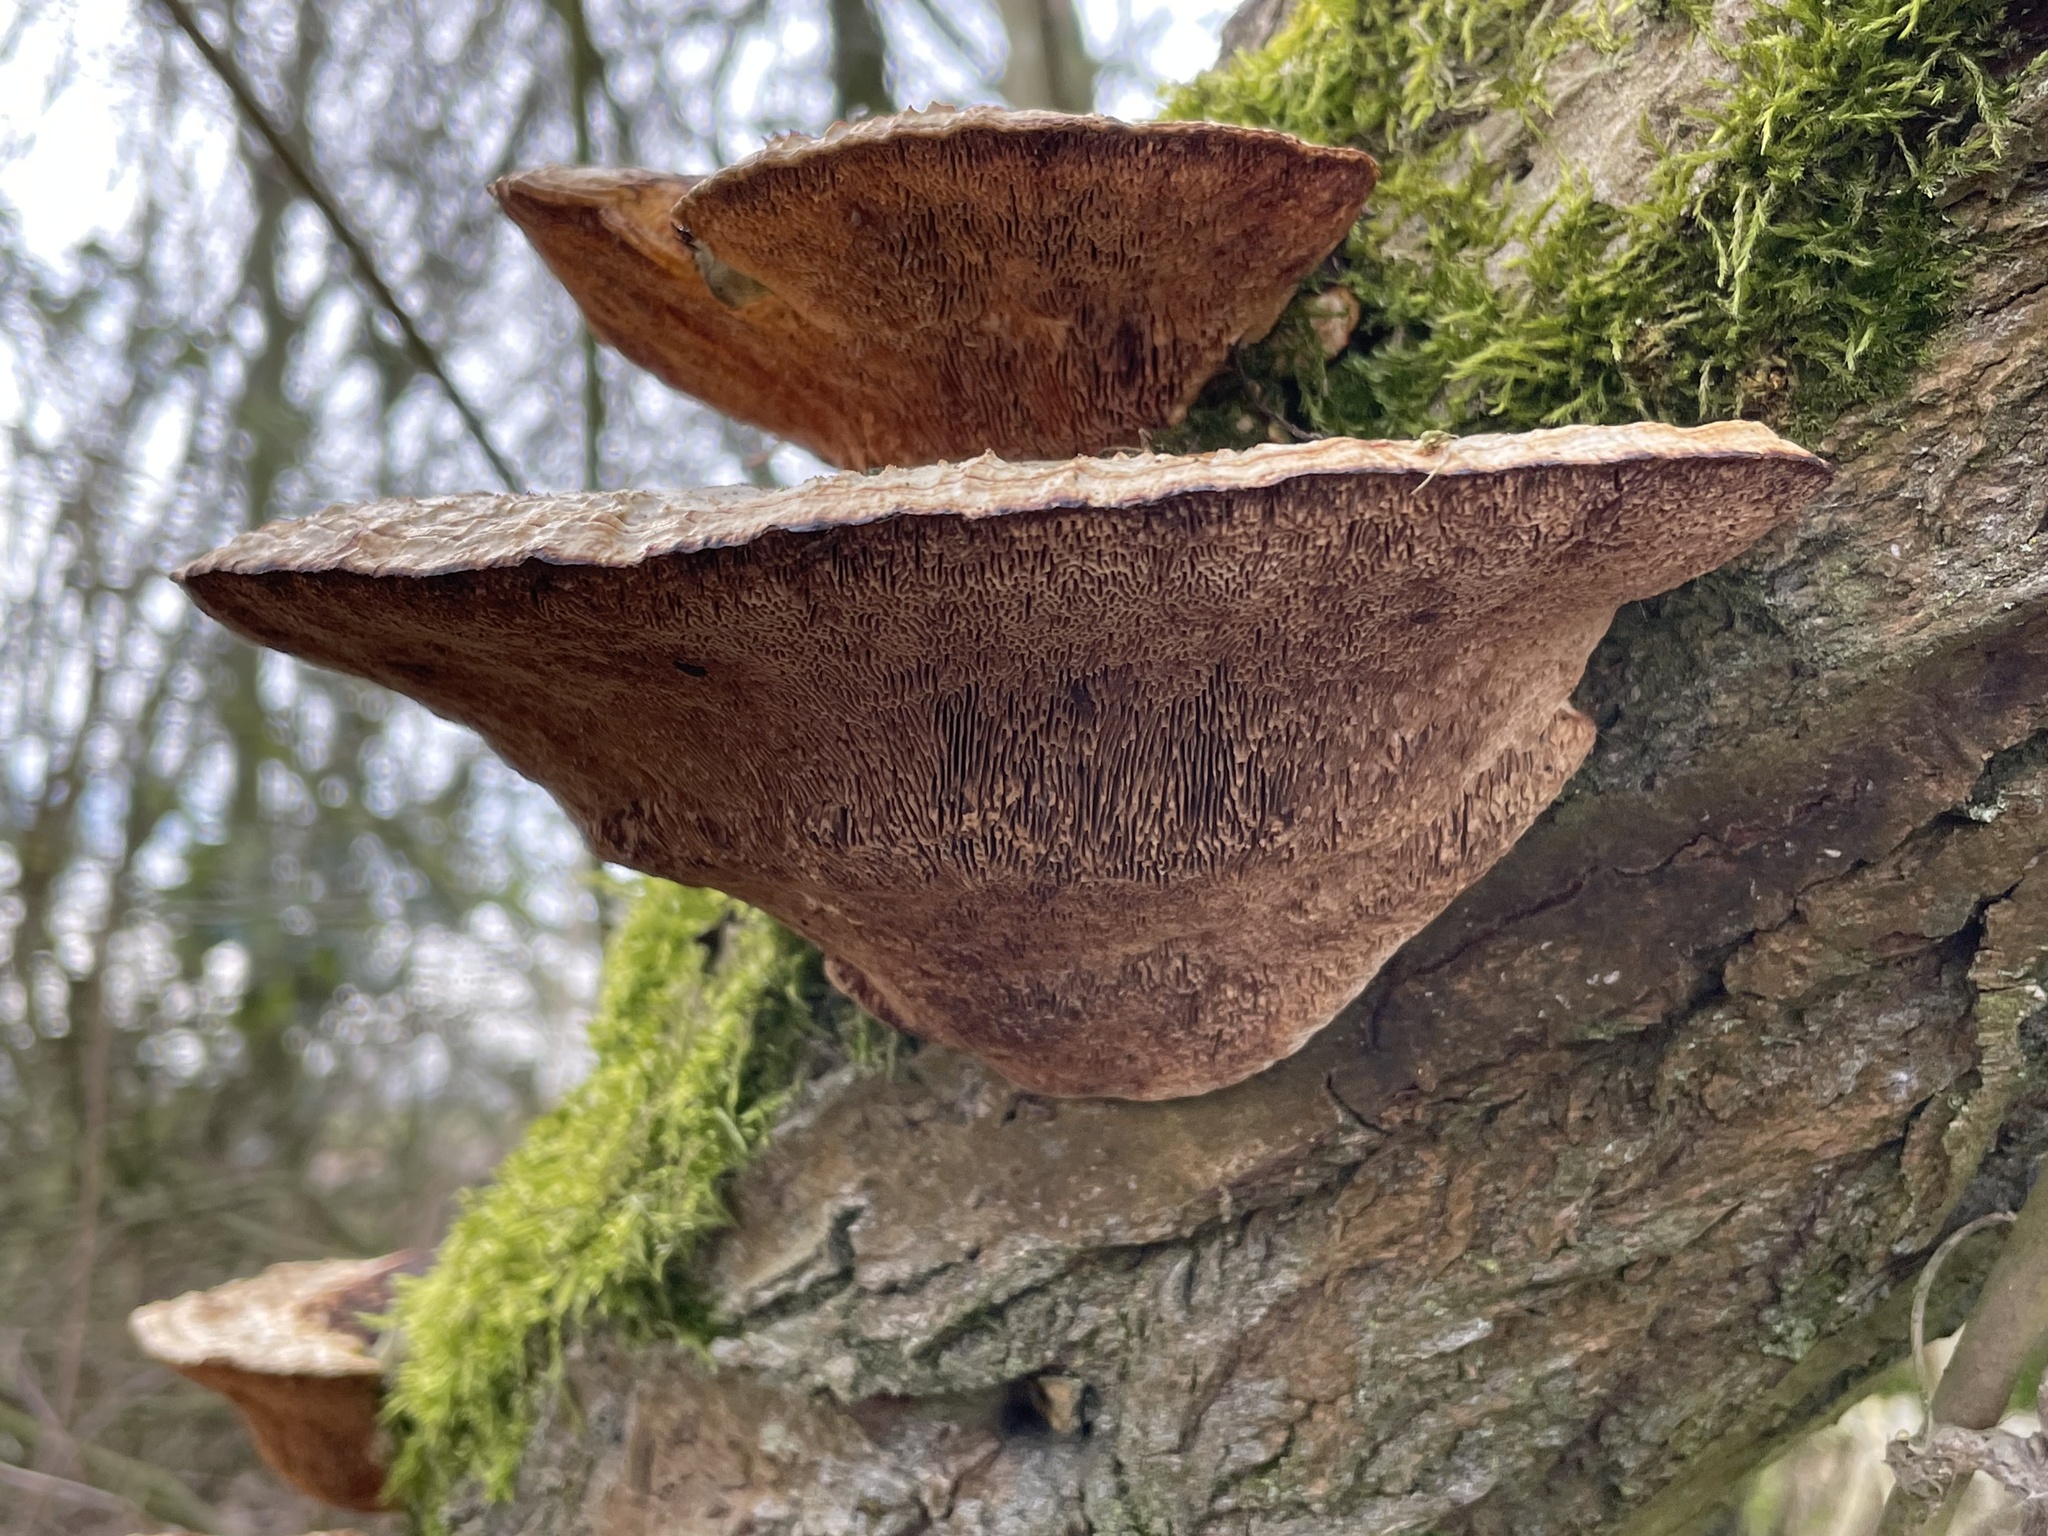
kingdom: Fungi
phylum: Basidiomycota
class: Agaricomycetes
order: Polyporales
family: Polyporaceae
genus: Daedaleopsis
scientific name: Daedaleopsis confragosa
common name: Blushing bracket
